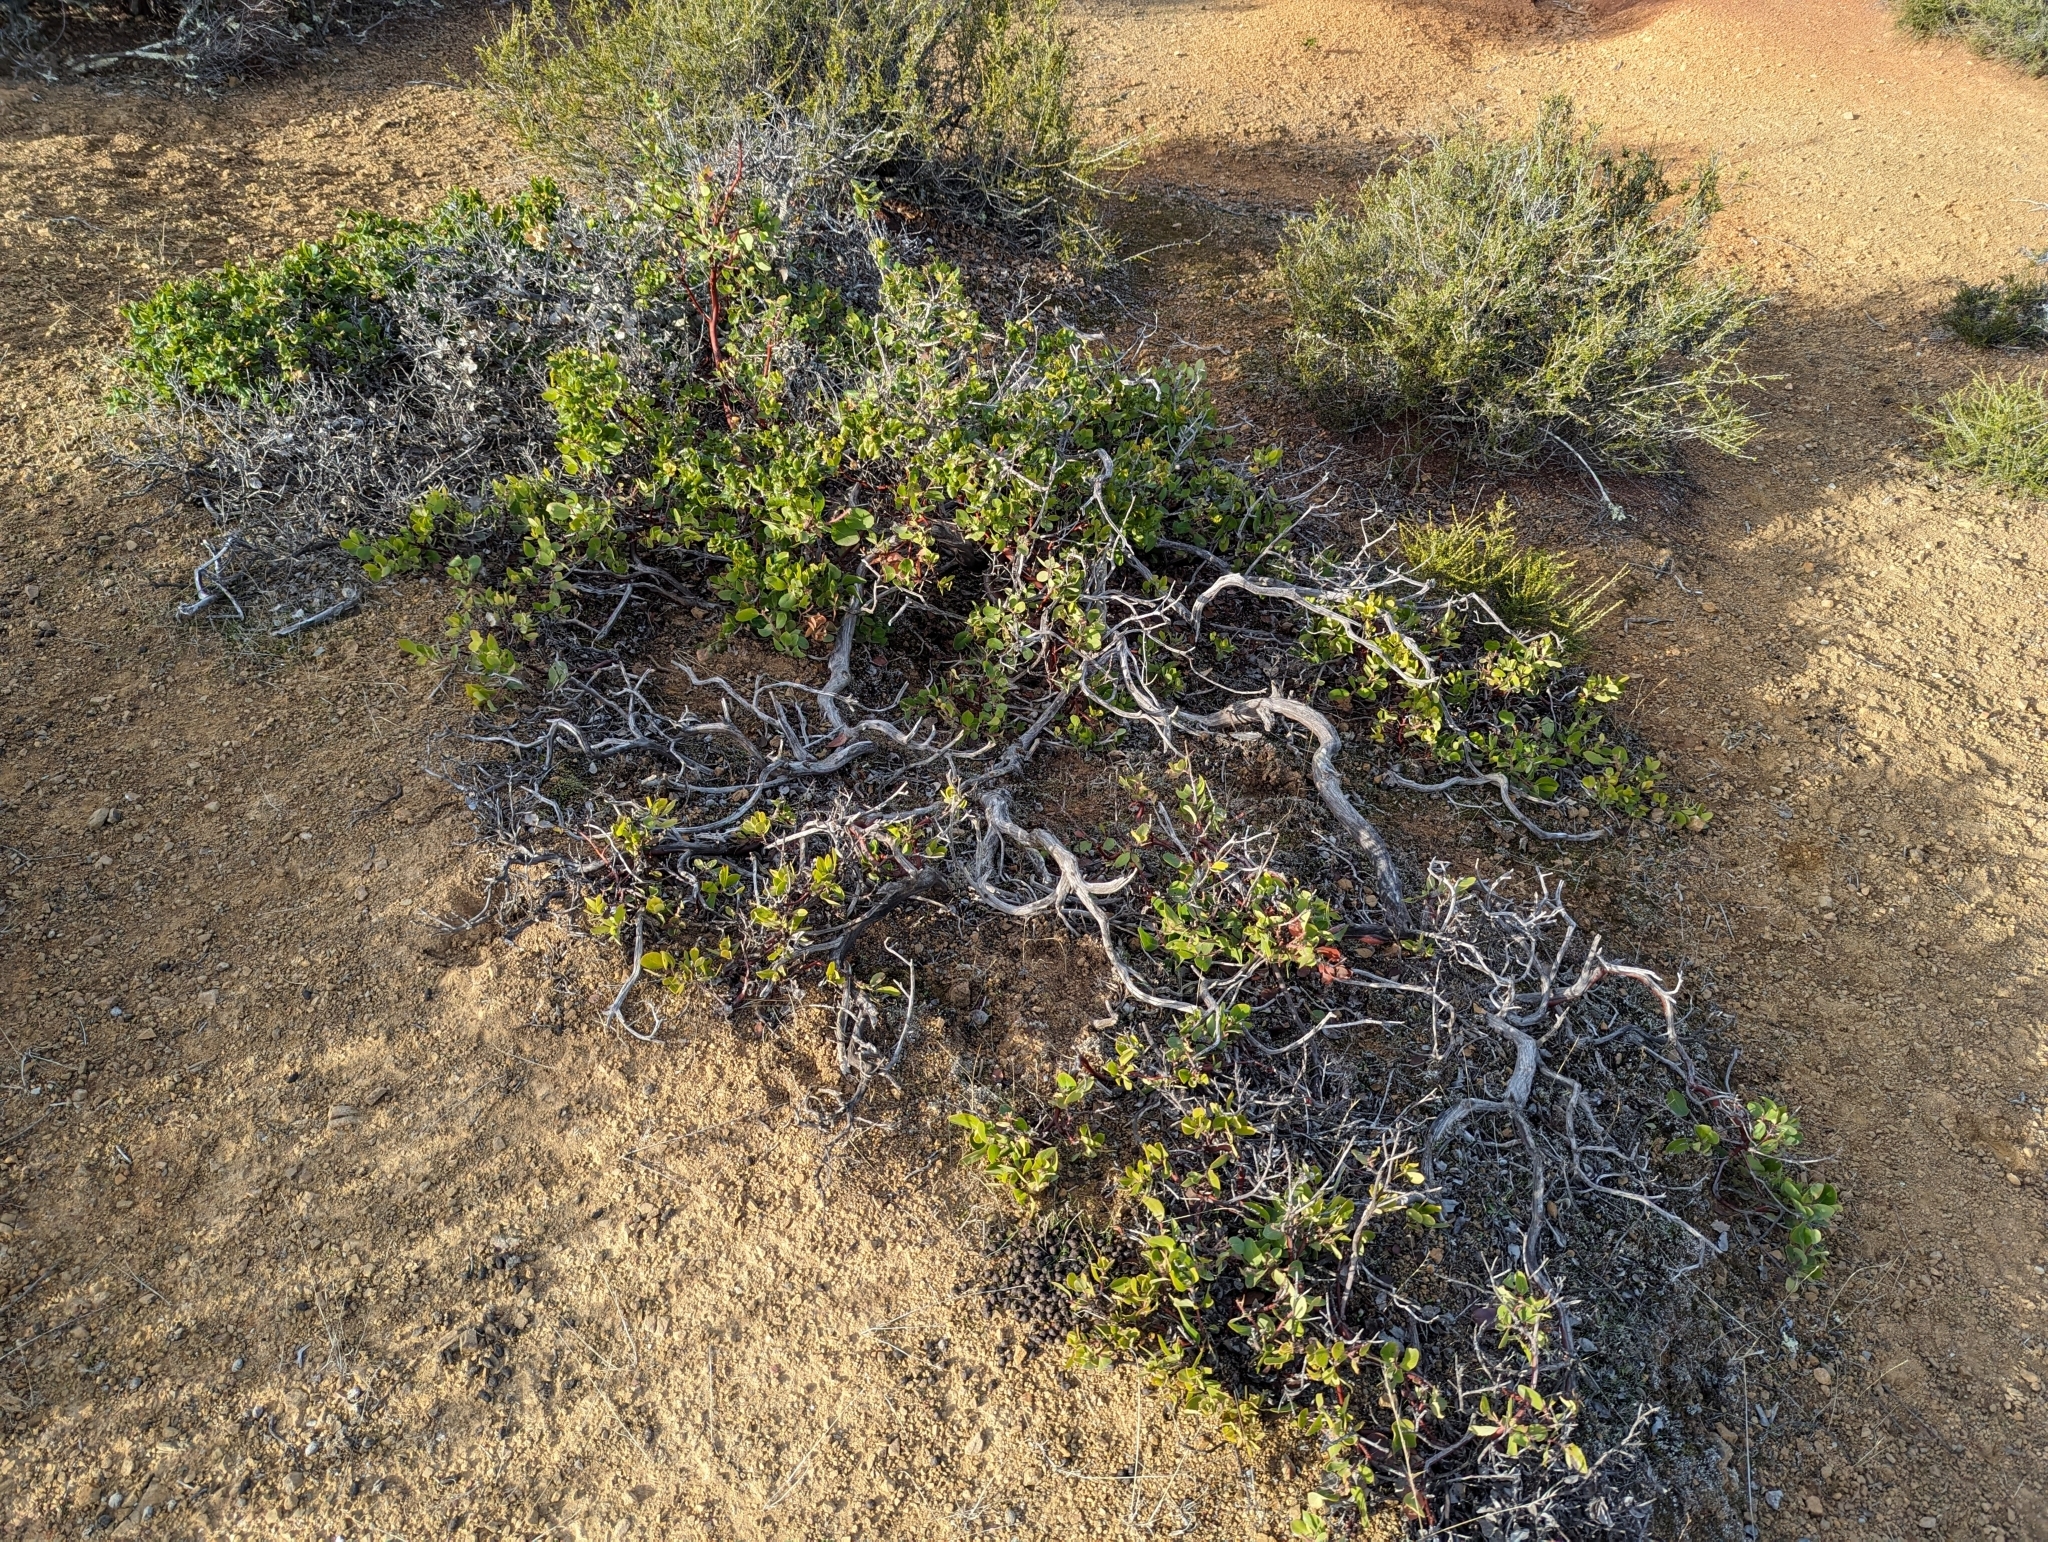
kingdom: Plantae
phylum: Tracheophyta
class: Magnoliopsida
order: Ericales
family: Ericaceae
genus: Arctostaphylos
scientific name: Arctostaphylos crustacea
